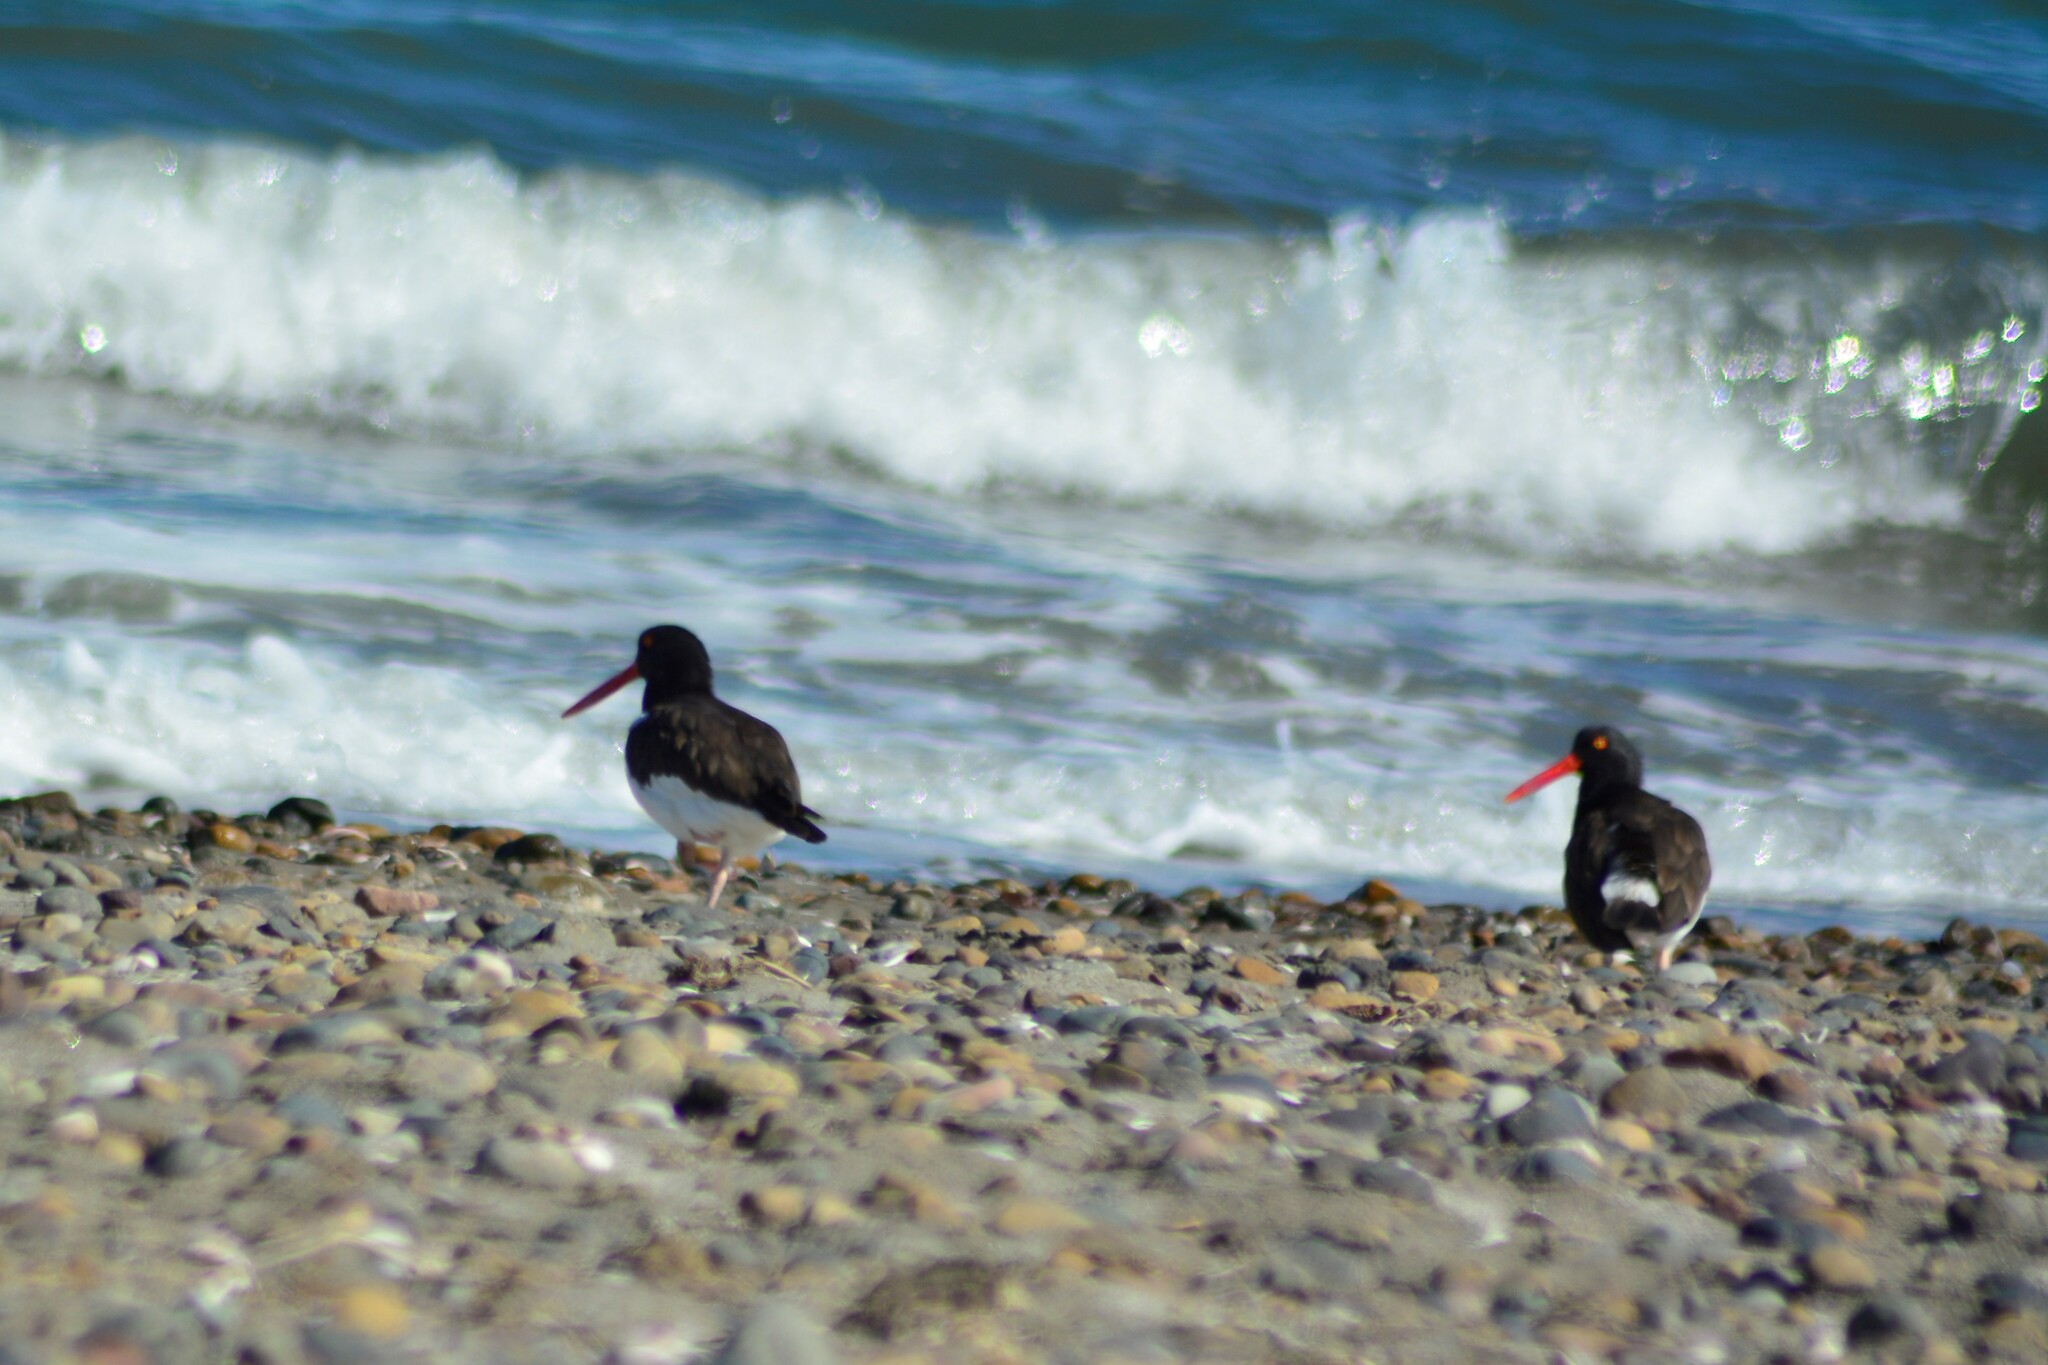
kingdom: Animalia
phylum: Chordata
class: Aves
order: Charadriiformes
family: Haematopodidae
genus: Haematopus
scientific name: Haematopus palliatus
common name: American oystercatcher
